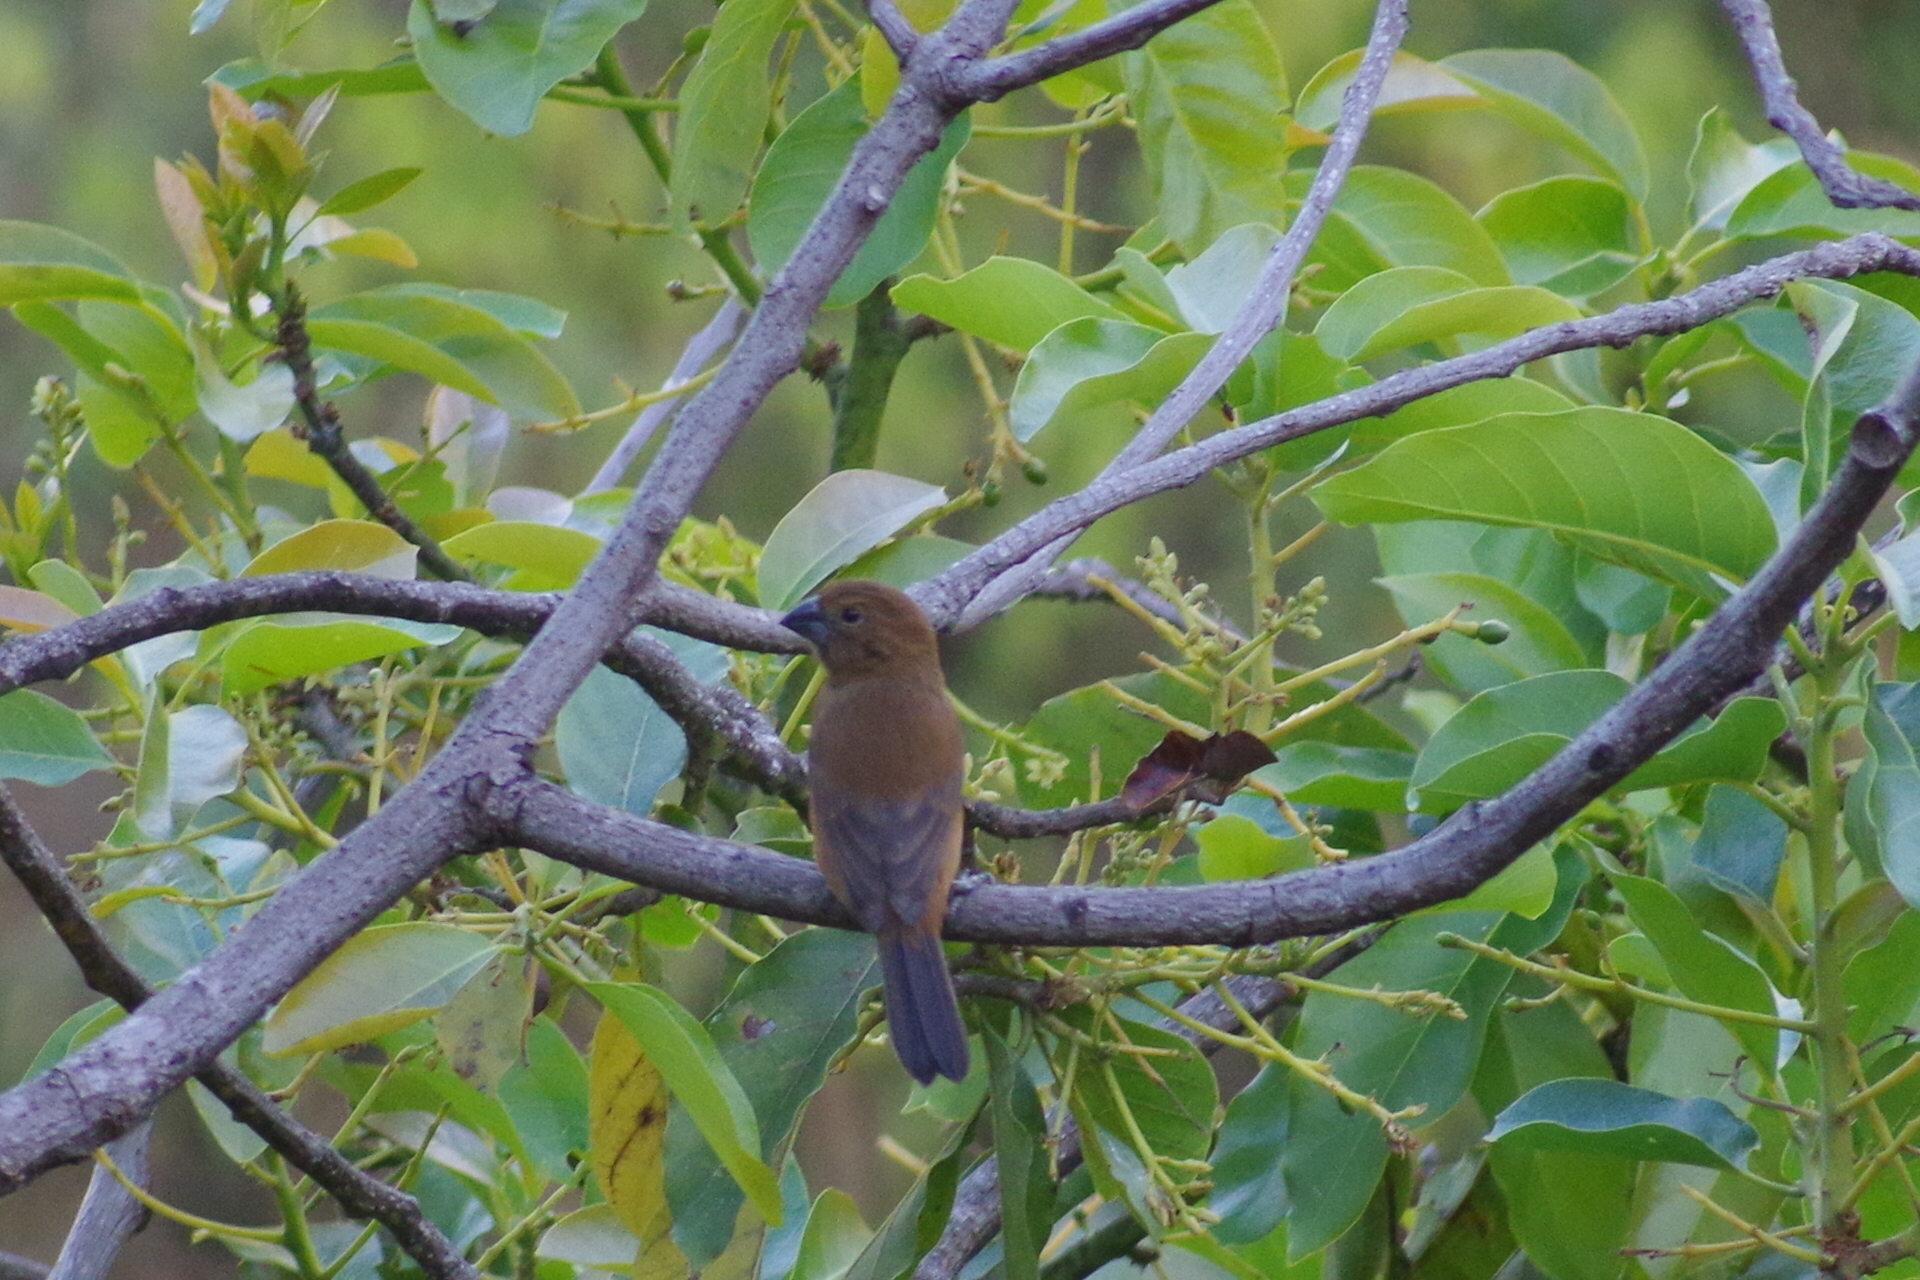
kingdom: Animalia
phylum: Chordata
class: Aves
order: Passeriformes
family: Cardinalidae
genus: Cyanoloxia
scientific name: Cyanoloxia brissonii
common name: Ultramarine grosbeak
